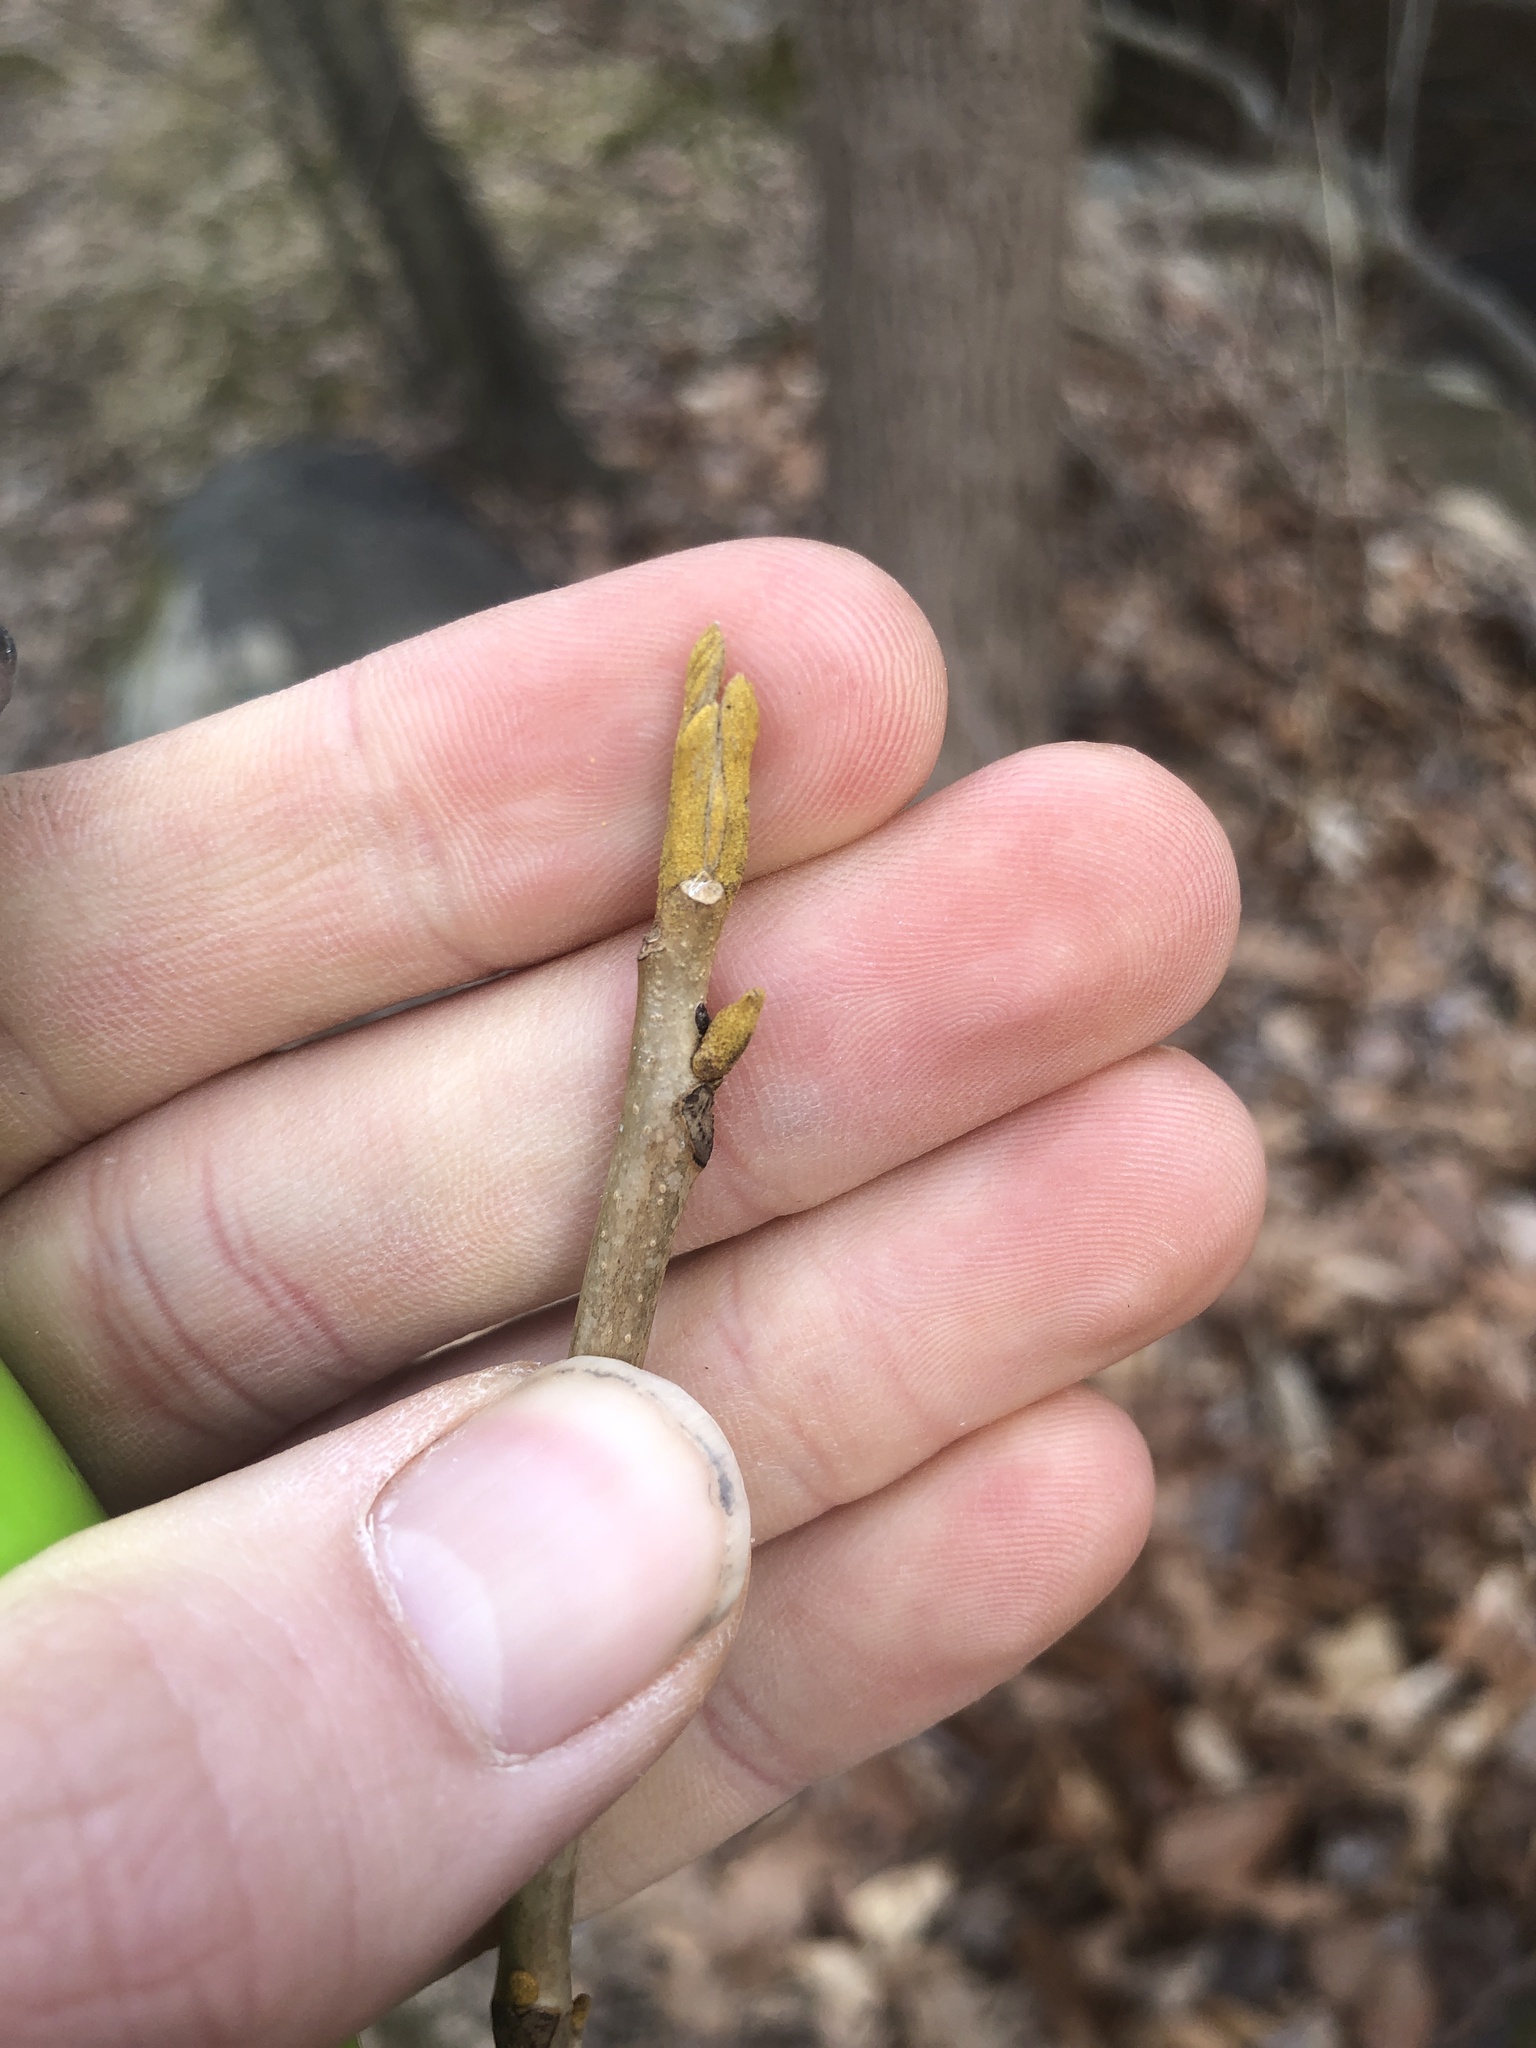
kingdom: Plantae
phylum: Tracheophyta
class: Magnoliopsida
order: Fagales
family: Juglandaceae
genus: Carya
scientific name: Carya cordiformis
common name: Bitternut hickory
